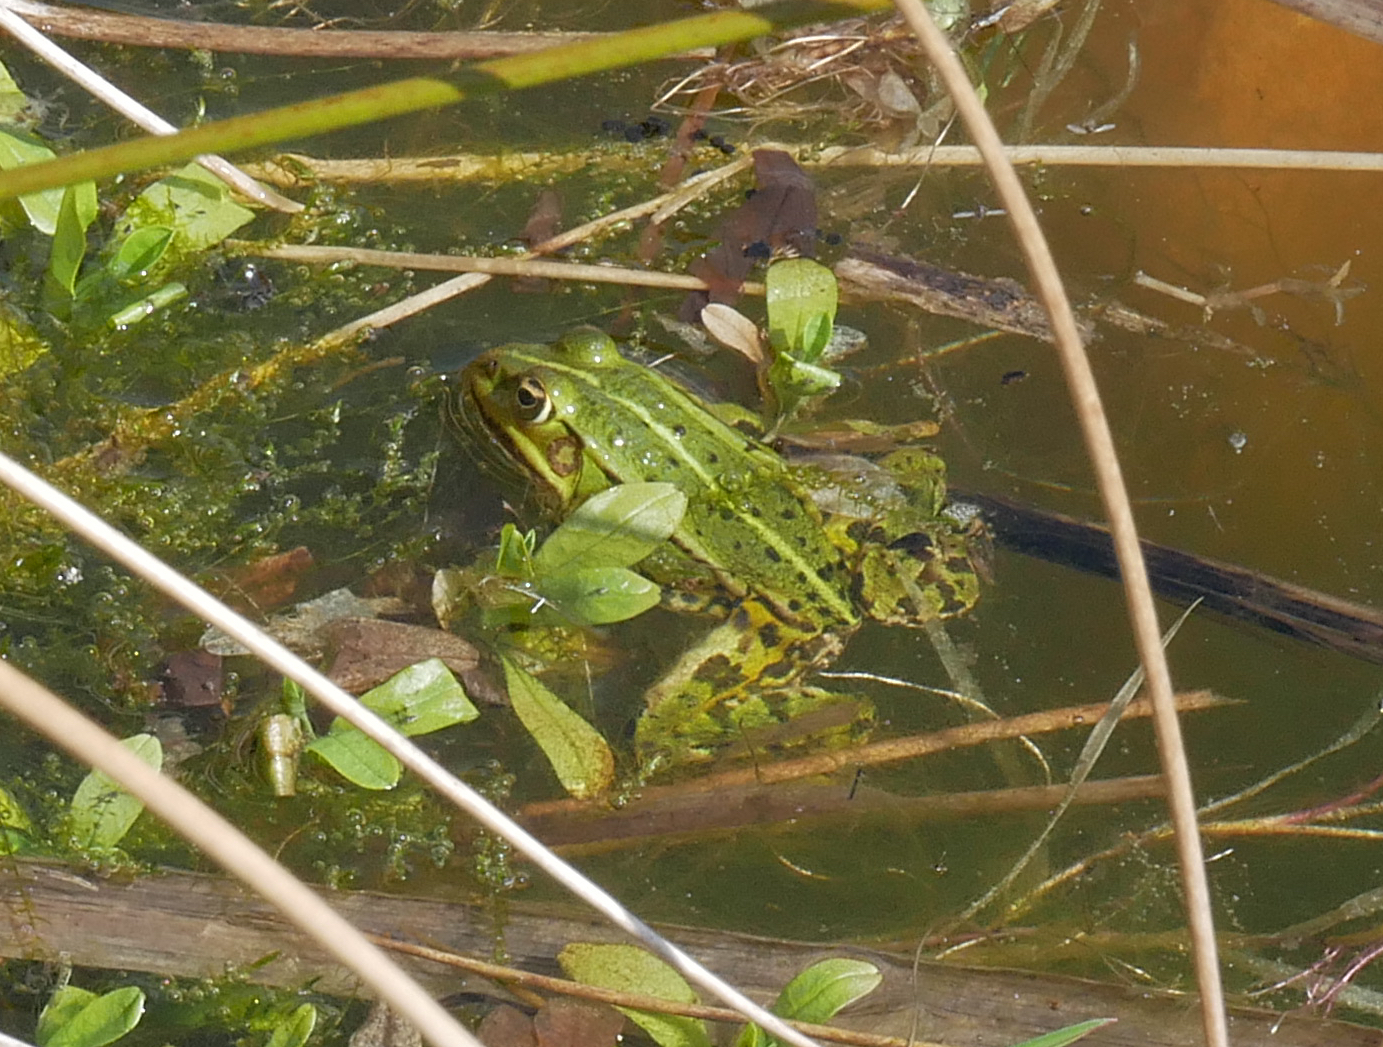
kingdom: Animalia
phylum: Chordata
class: Amphibia
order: Anura
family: Ranidae
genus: Pelophylax
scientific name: Pelophylax
